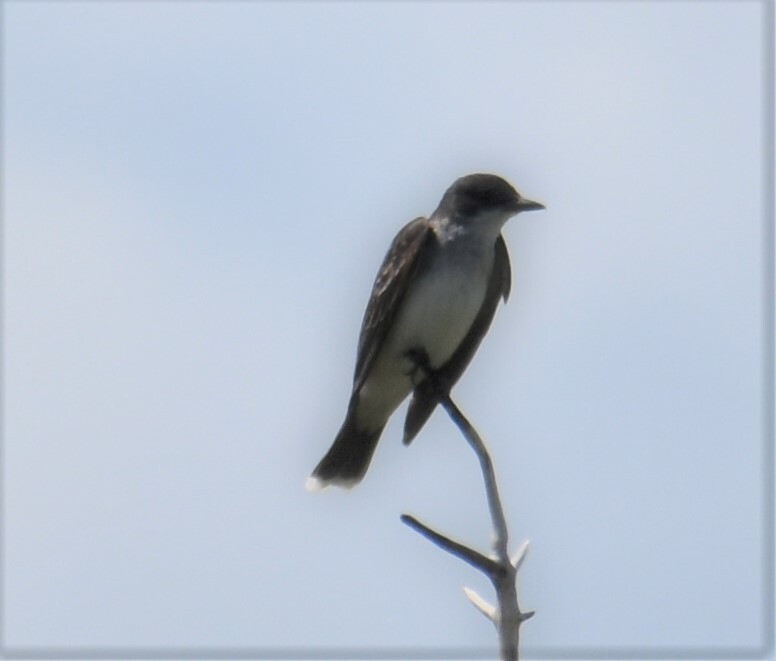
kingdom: Animalia
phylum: Chordata
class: Aves
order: Passeriformes
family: Tyrannidae
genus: Tyrannus
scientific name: Tyrannus tyrannus
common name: Eastern kingbird
